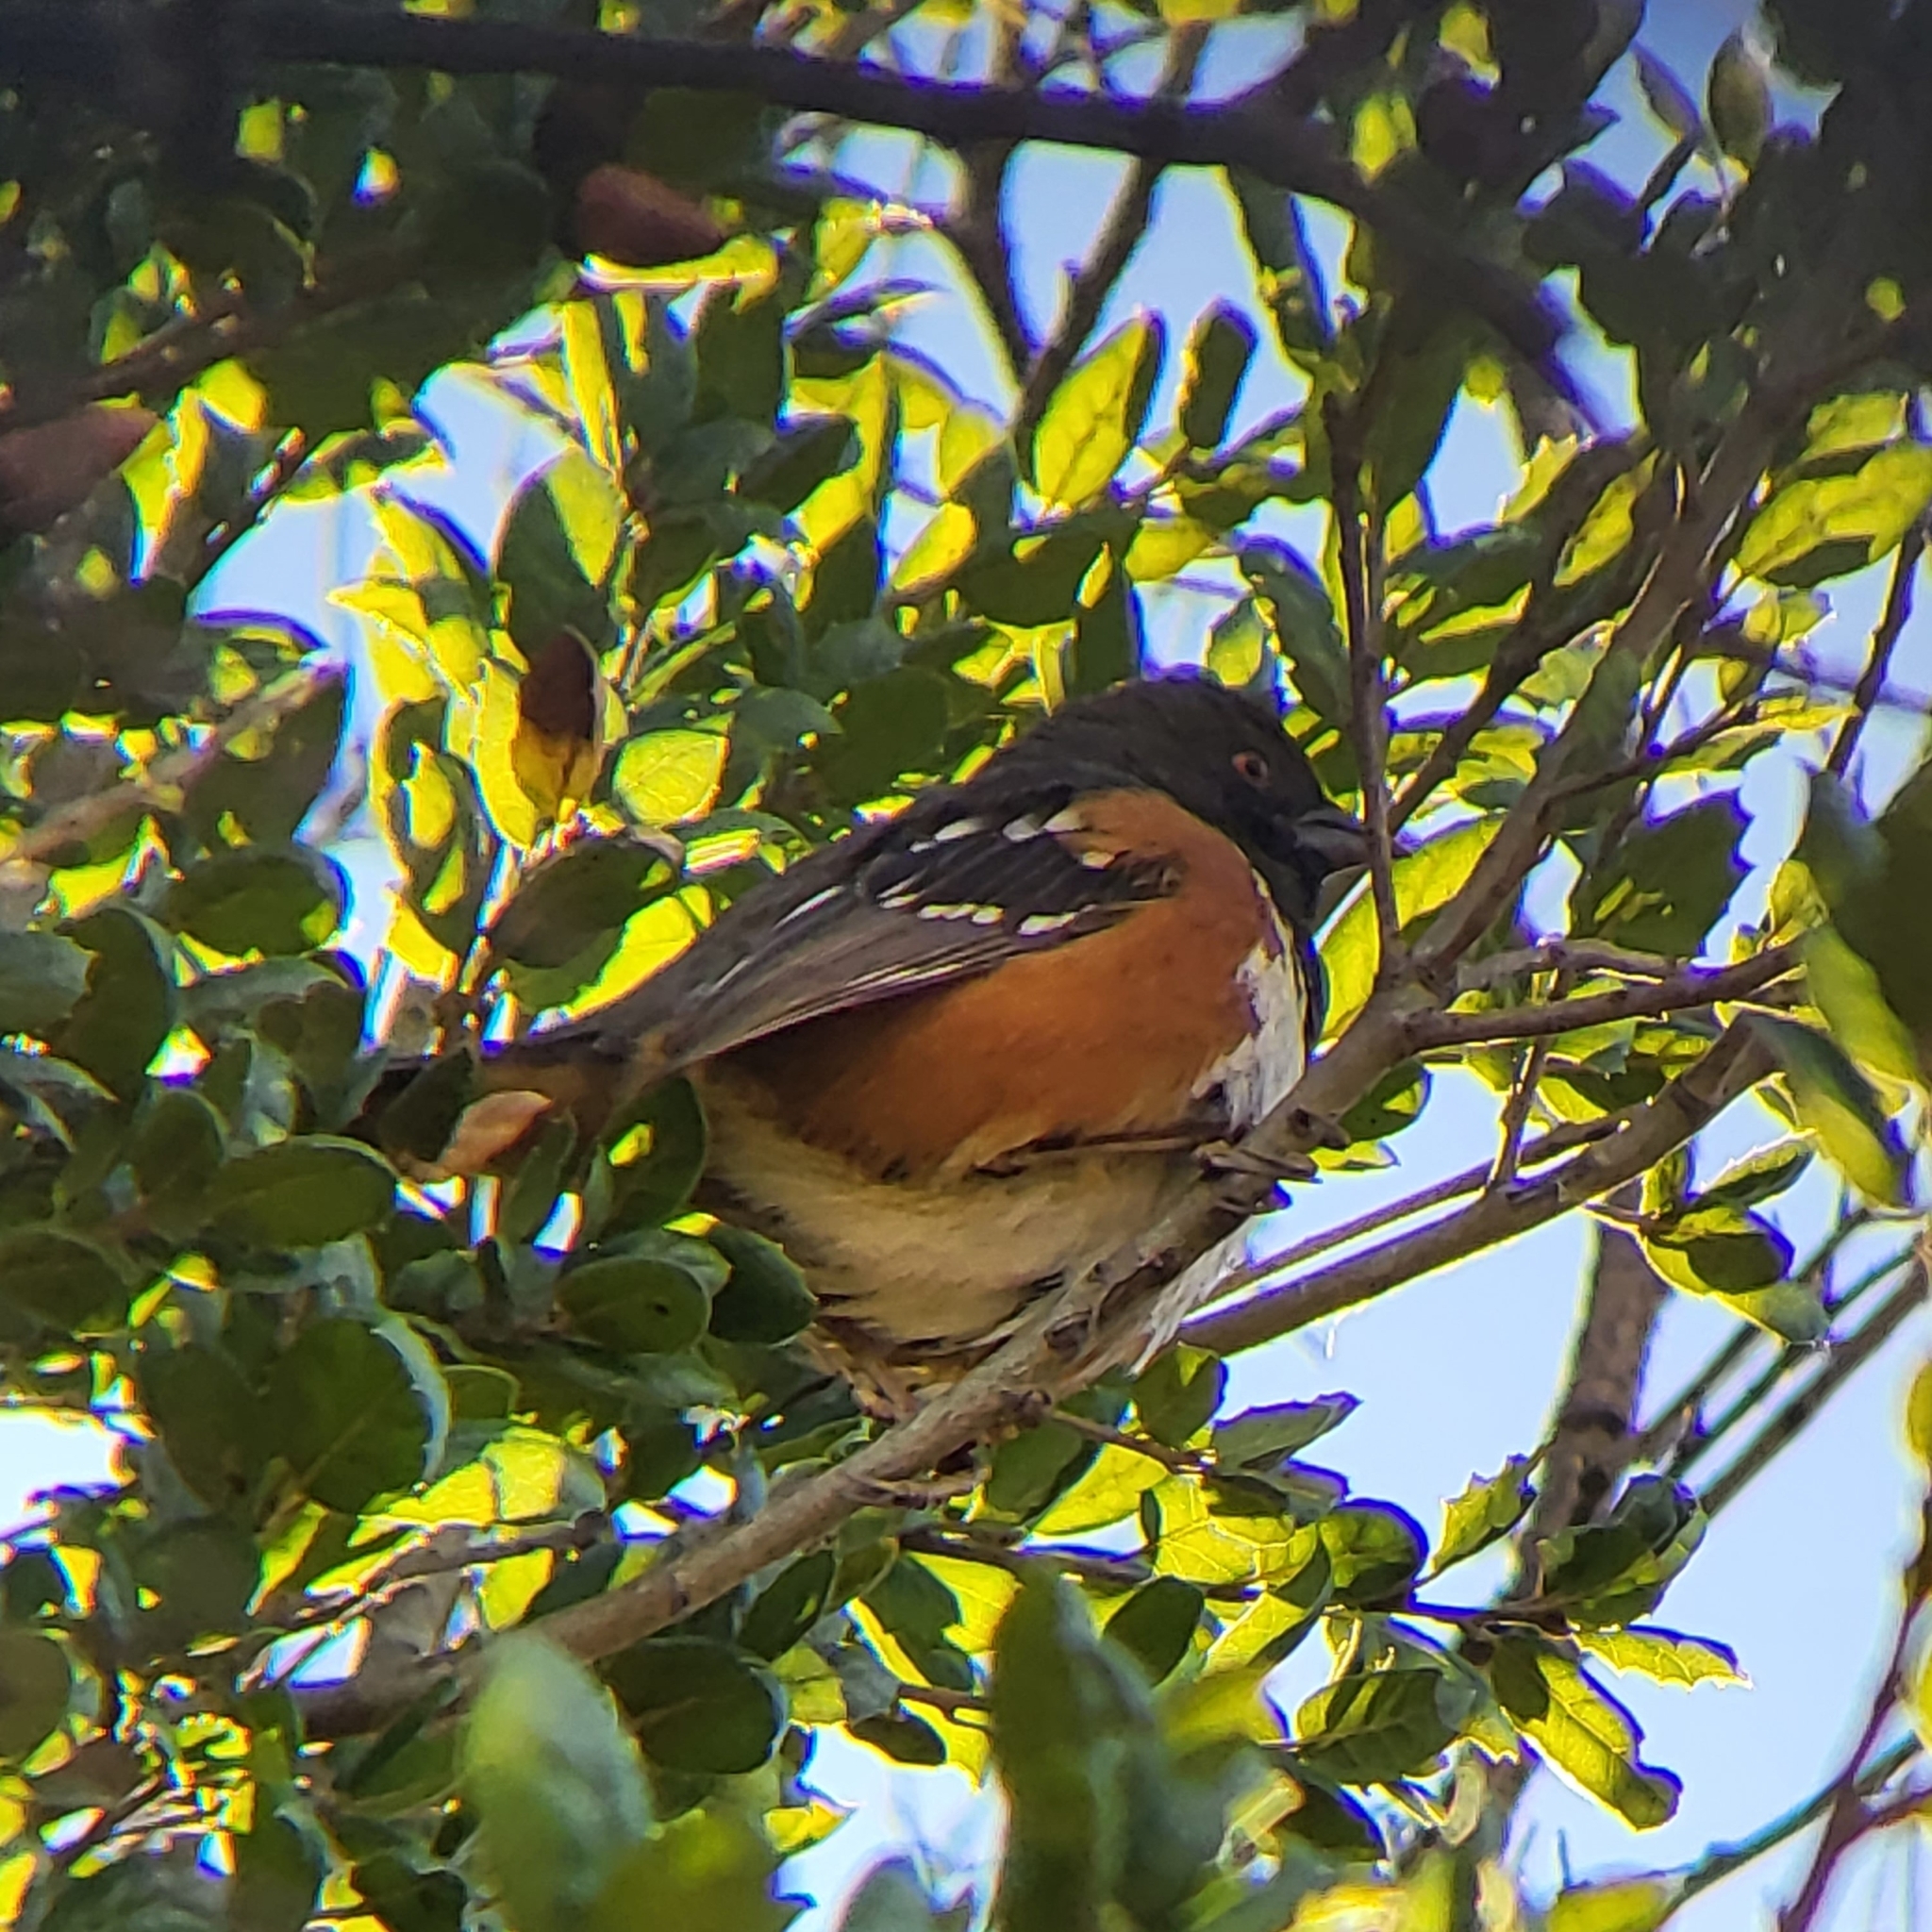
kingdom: Animalia
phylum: Chordata
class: Aves
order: Passeriformes
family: Passerellidae
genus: Pipilo
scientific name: Pipilo maculatus
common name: Spotted towhee
